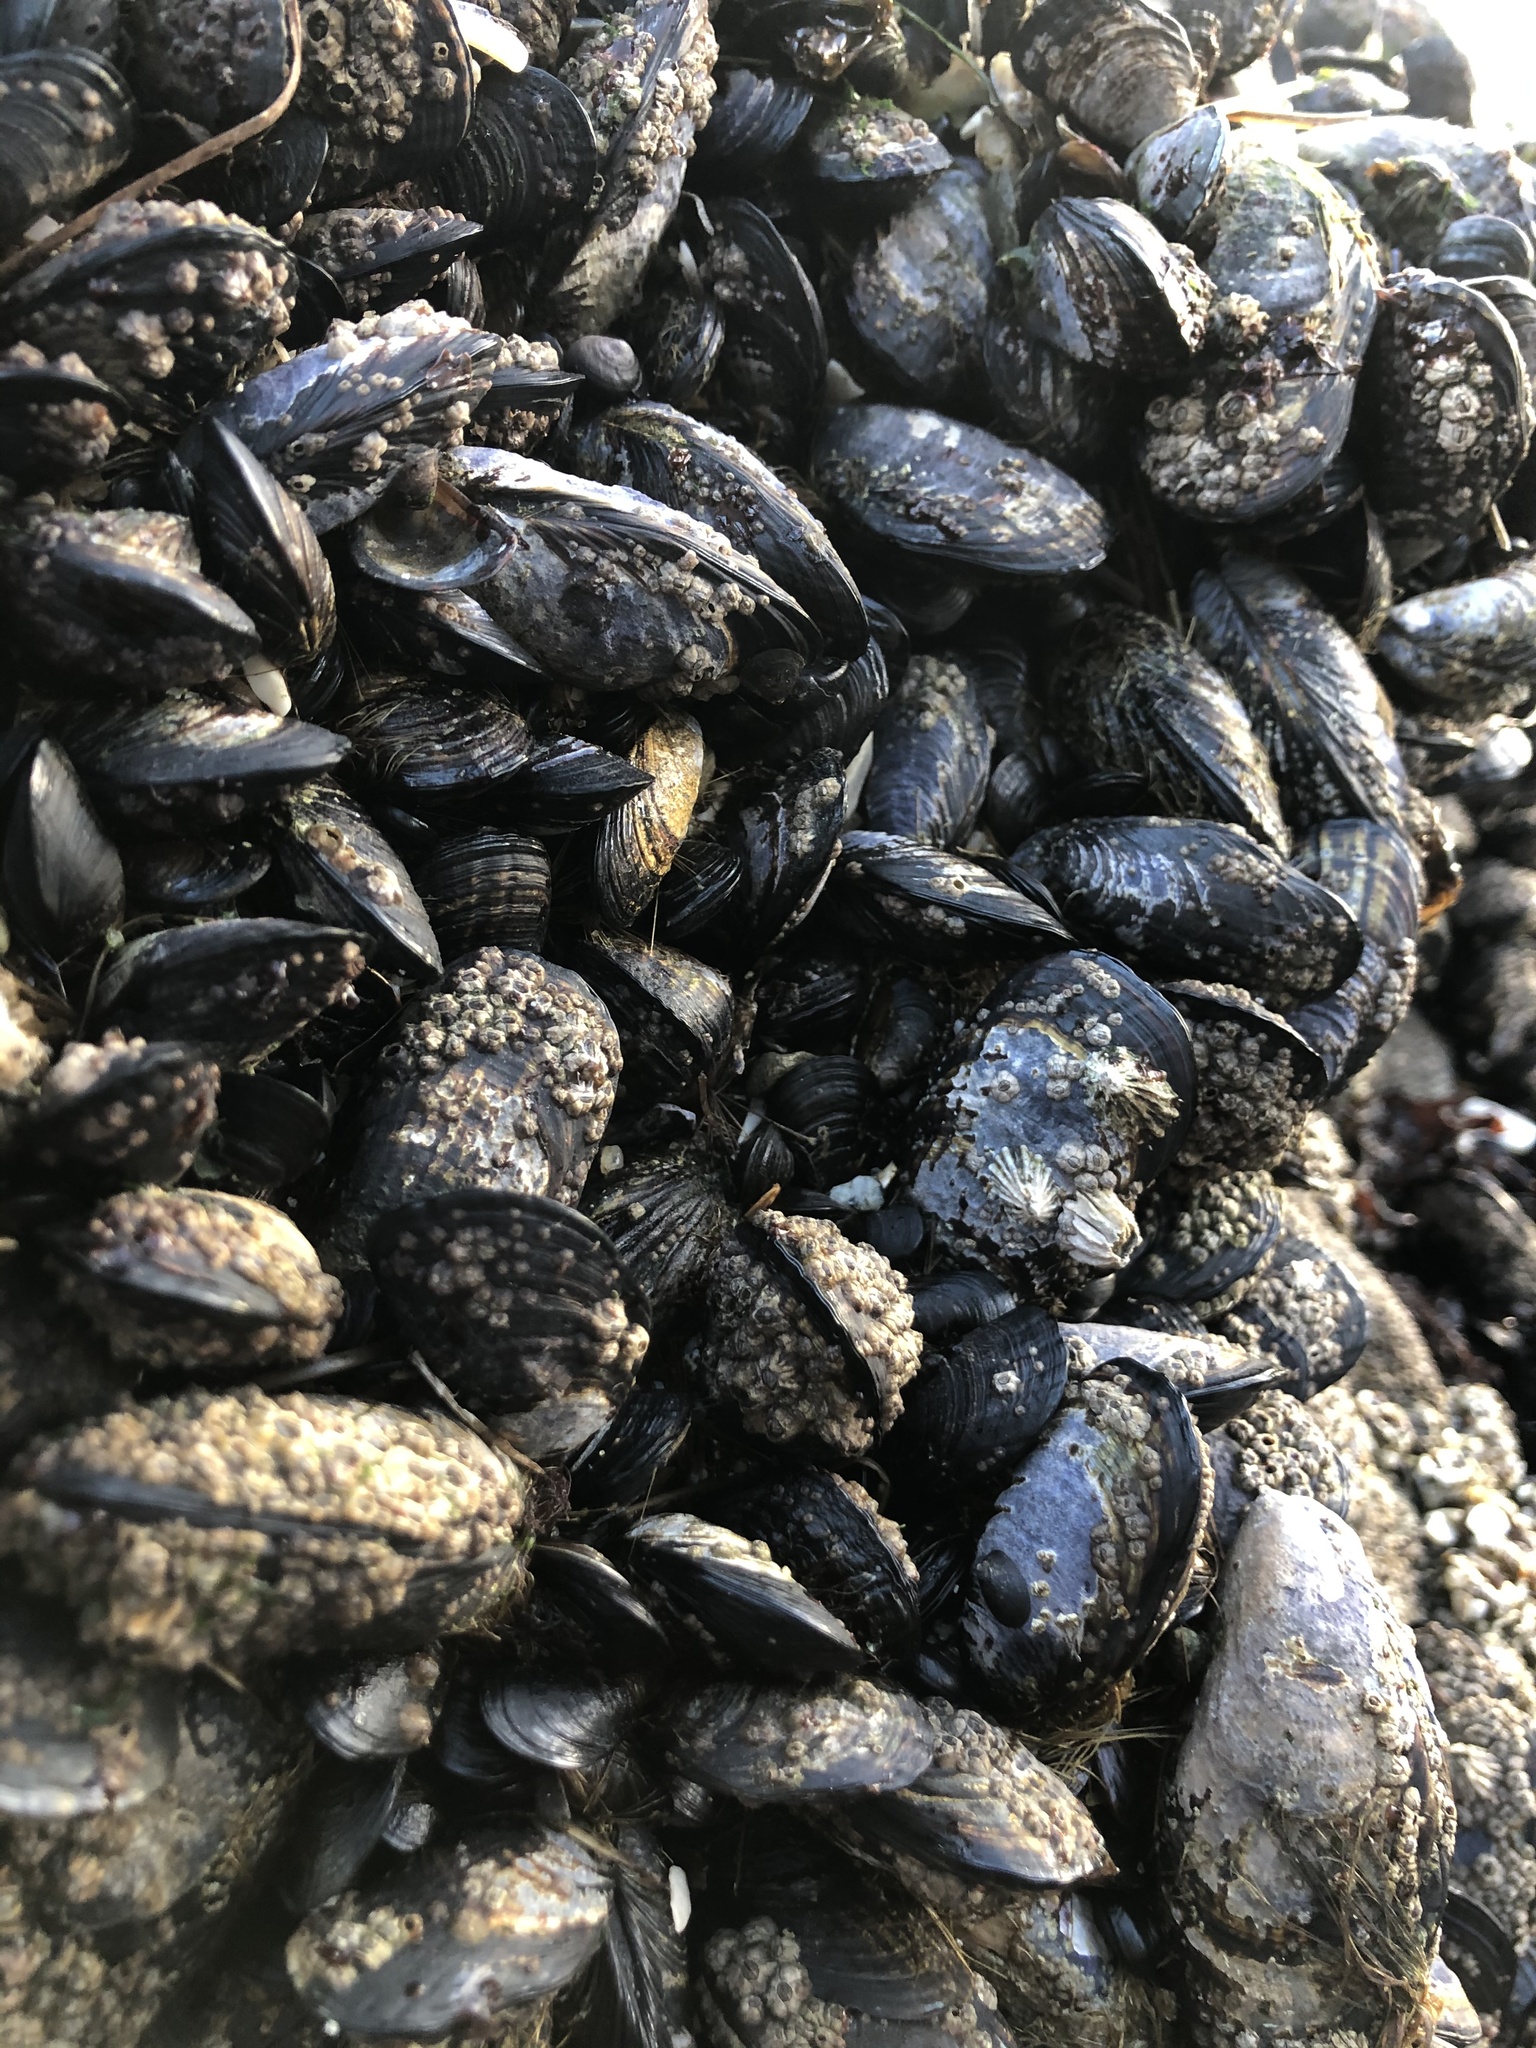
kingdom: Animalia
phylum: Mollusca
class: Bivalvia
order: Mytilida
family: Mytilidae
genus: Mytilus
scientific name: Mytilus californianus
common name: California mussel
